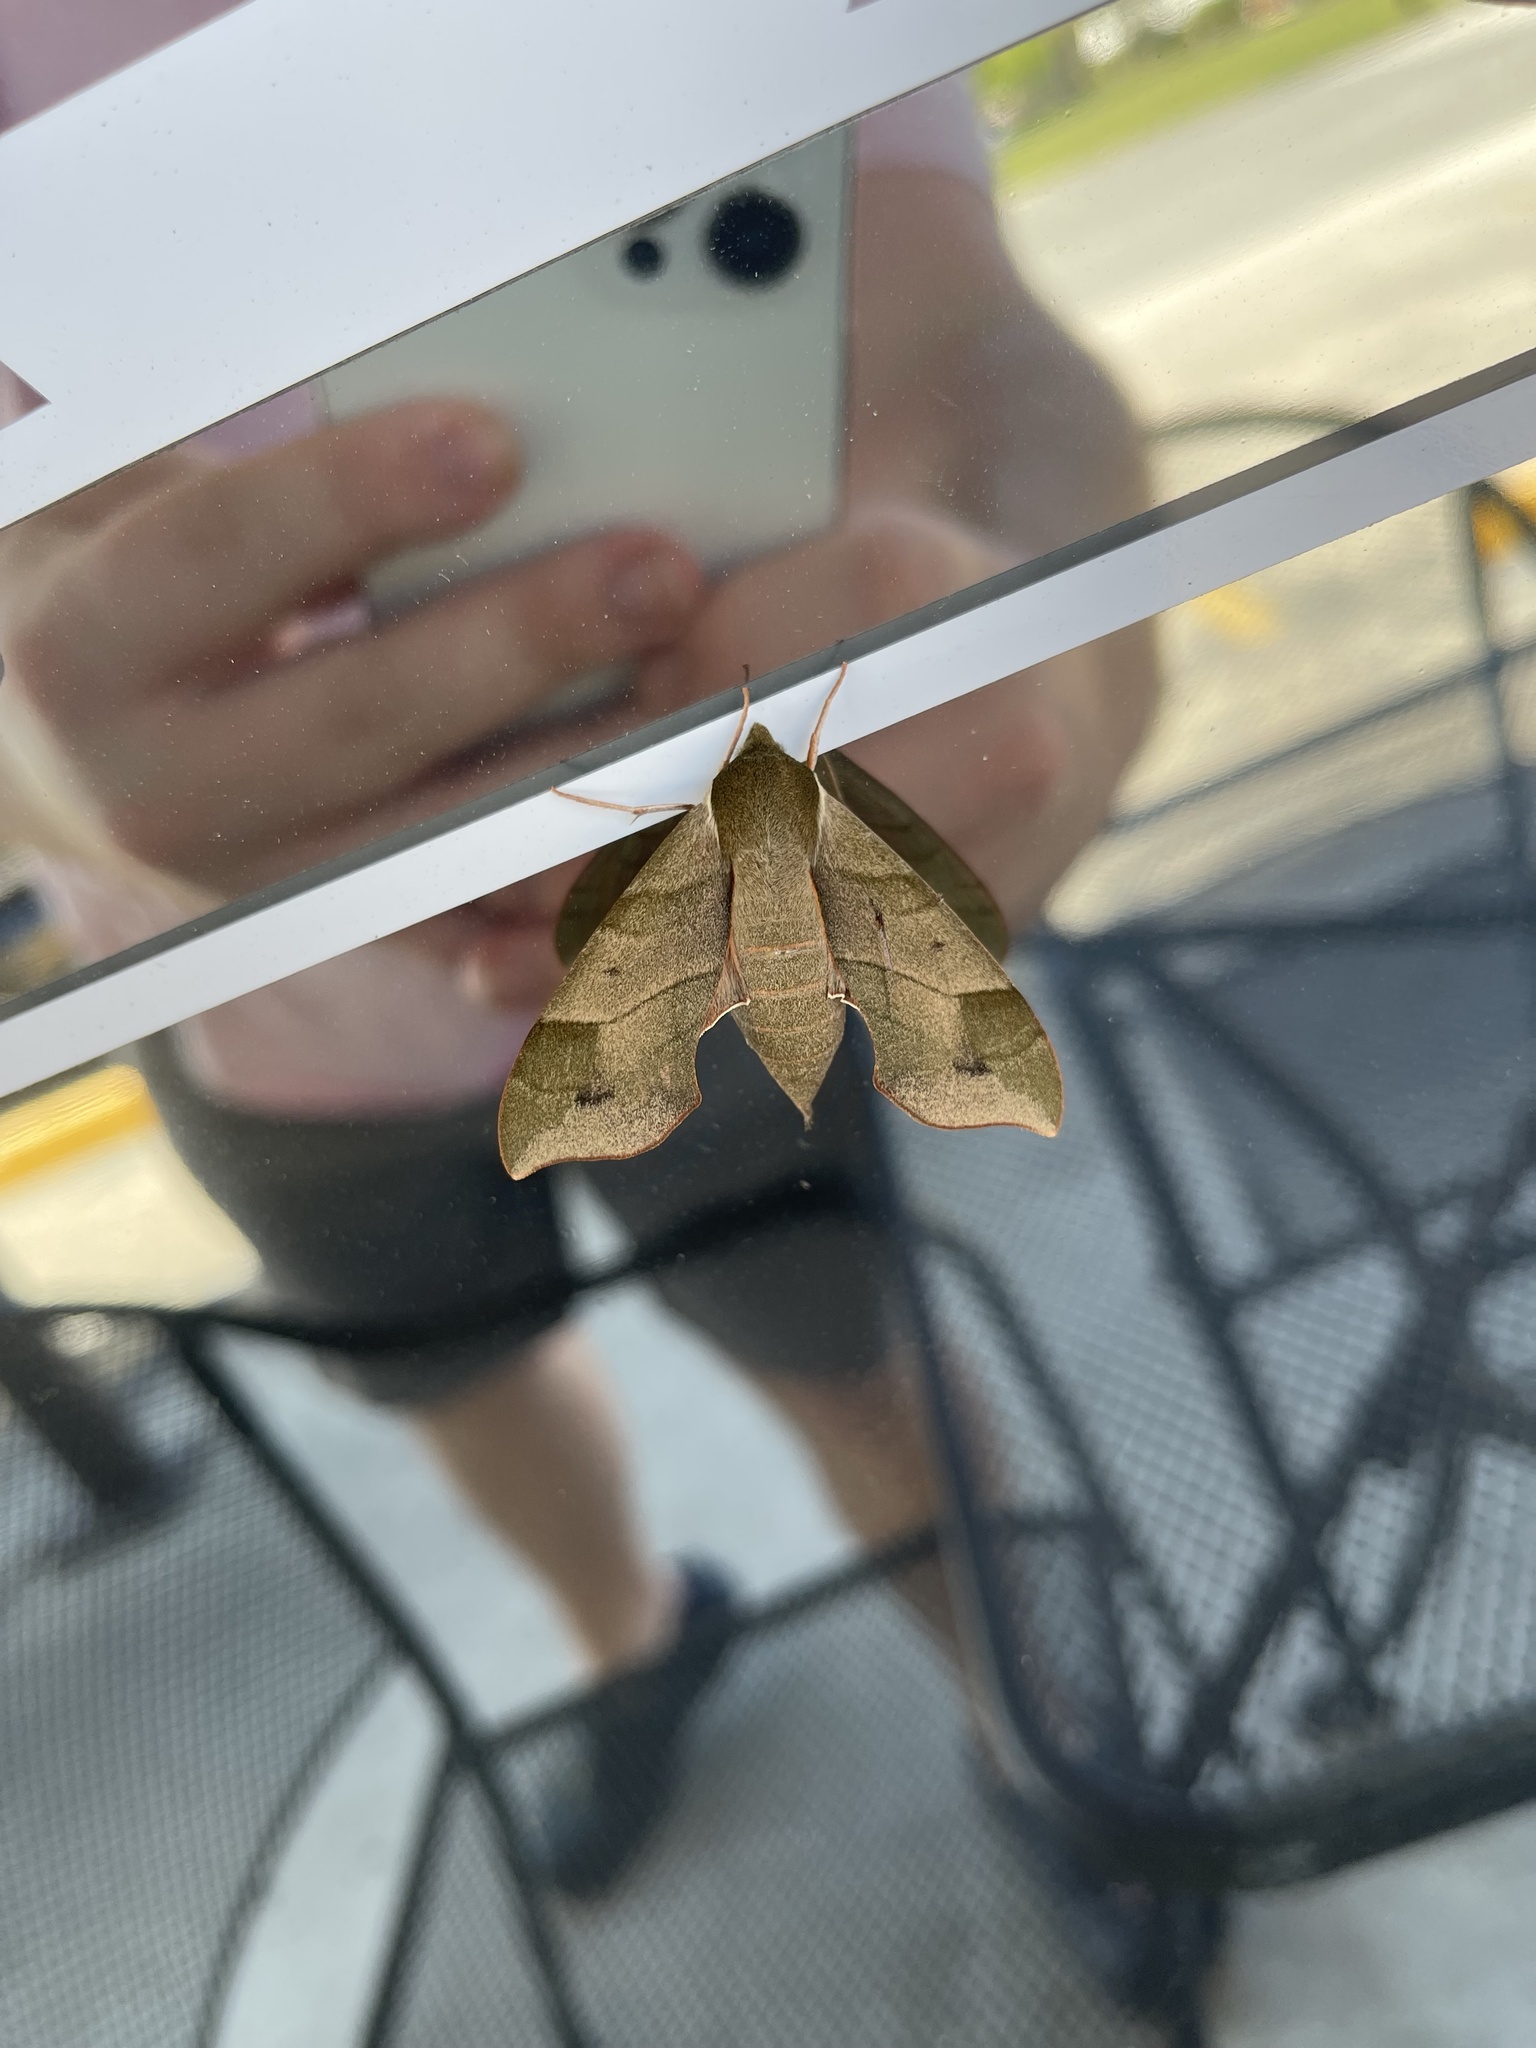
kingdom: Animalia
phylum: Arthropoda
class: Insecta
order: Lepidoptera
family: Sphingidae
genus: Darapsa
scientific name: Darapsa myron
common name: Hog sphinx
